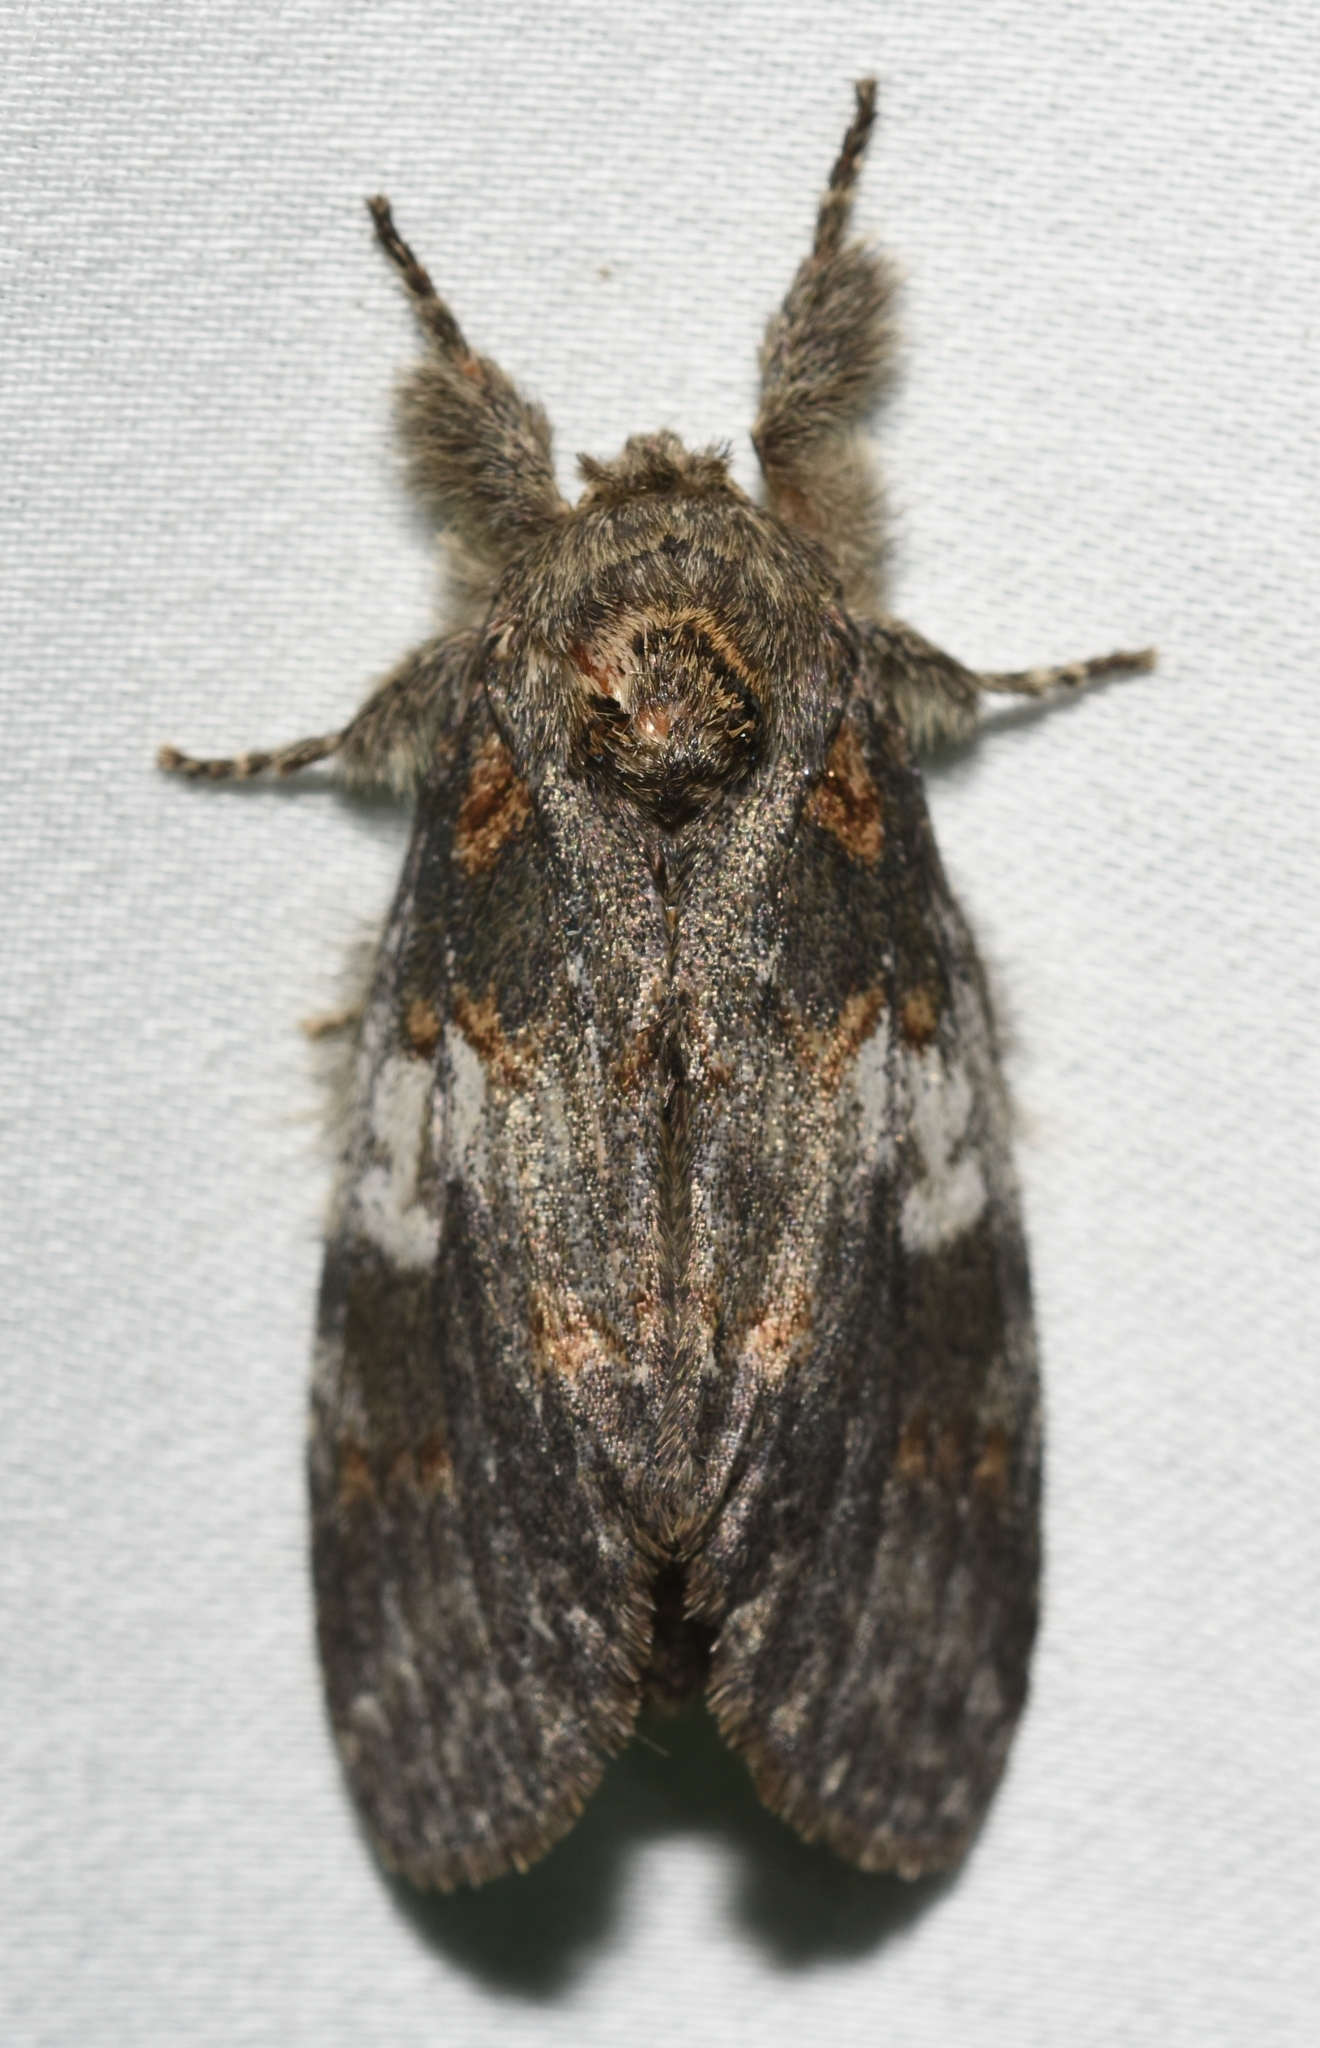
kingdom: Animalia
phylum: Arthropoda
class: Insecta
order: Lepidoptera
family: Notodontidae
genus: Peridea
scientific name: Peridea angulosa
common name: Angulose prominent
